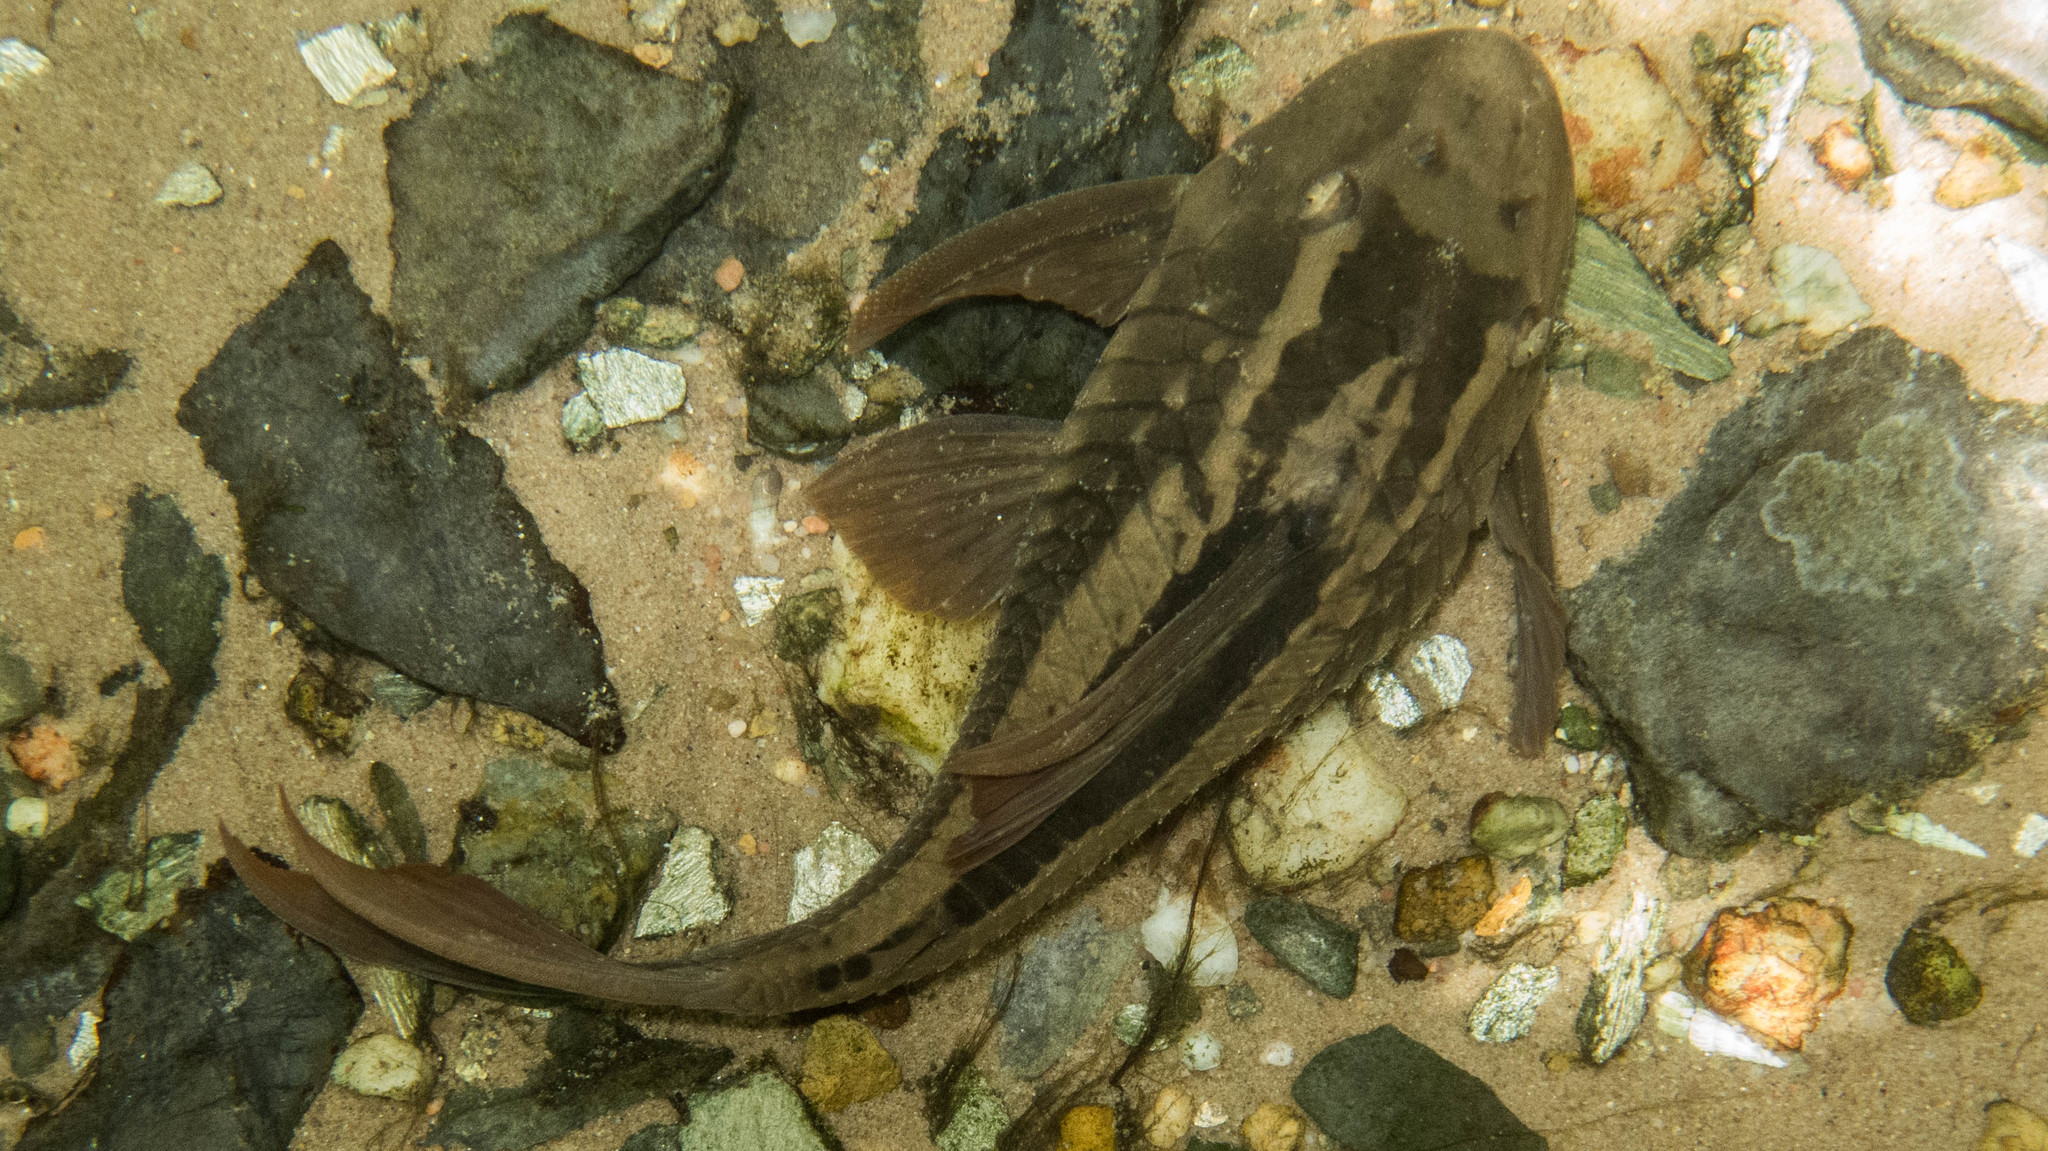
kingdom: Animalia
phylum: Chordata
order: Siluriformes
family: Loricariidae
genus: Hypostomus
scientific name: Hypostomus basilisko
